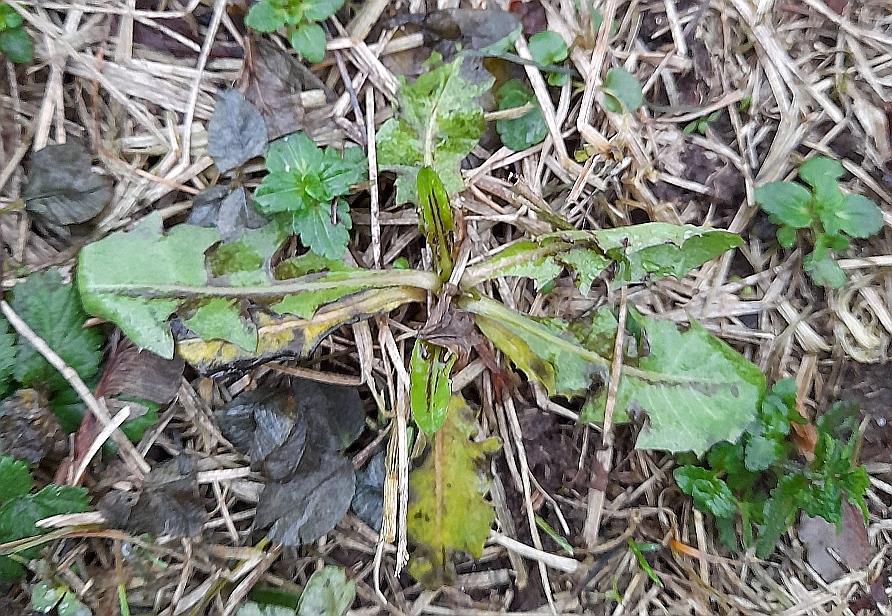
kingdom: Plantae
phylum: Tracheophyta
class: Magnoliopsida
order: Asterales
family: Asteraceae
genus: Taraxacum
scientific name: Taraxacum officinale
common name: Common dandelion
